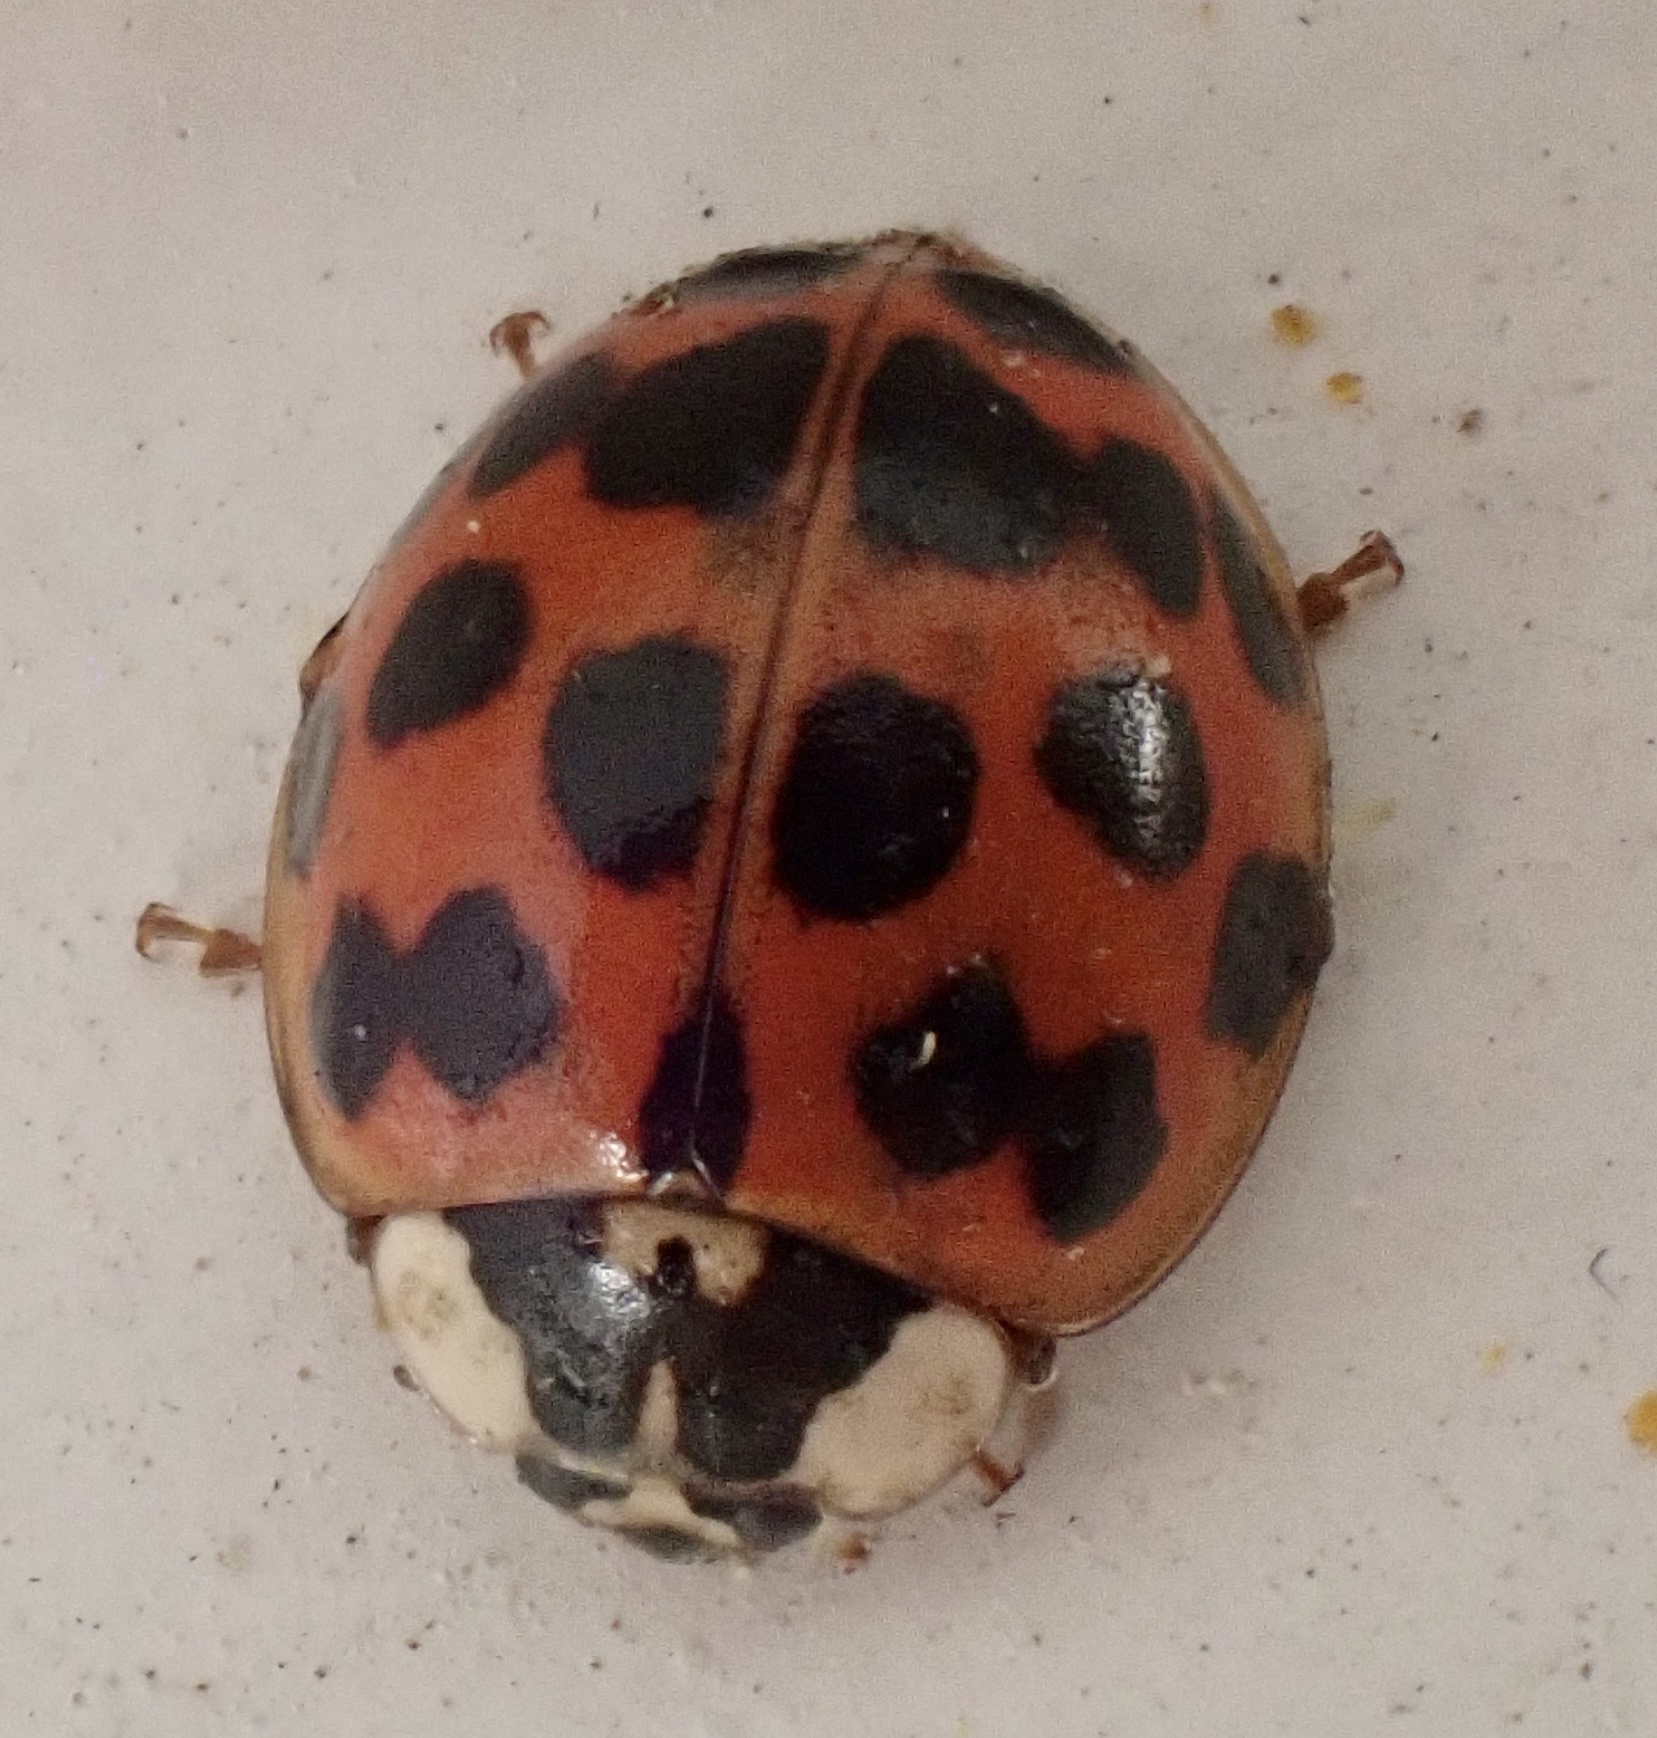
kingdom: Animalia
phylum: Arthropoda
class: Insecta
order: Coleoptera
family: Coccinellidae
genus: Harmonia
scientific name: Harmonia axyridis
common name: Harlequin ladybird
